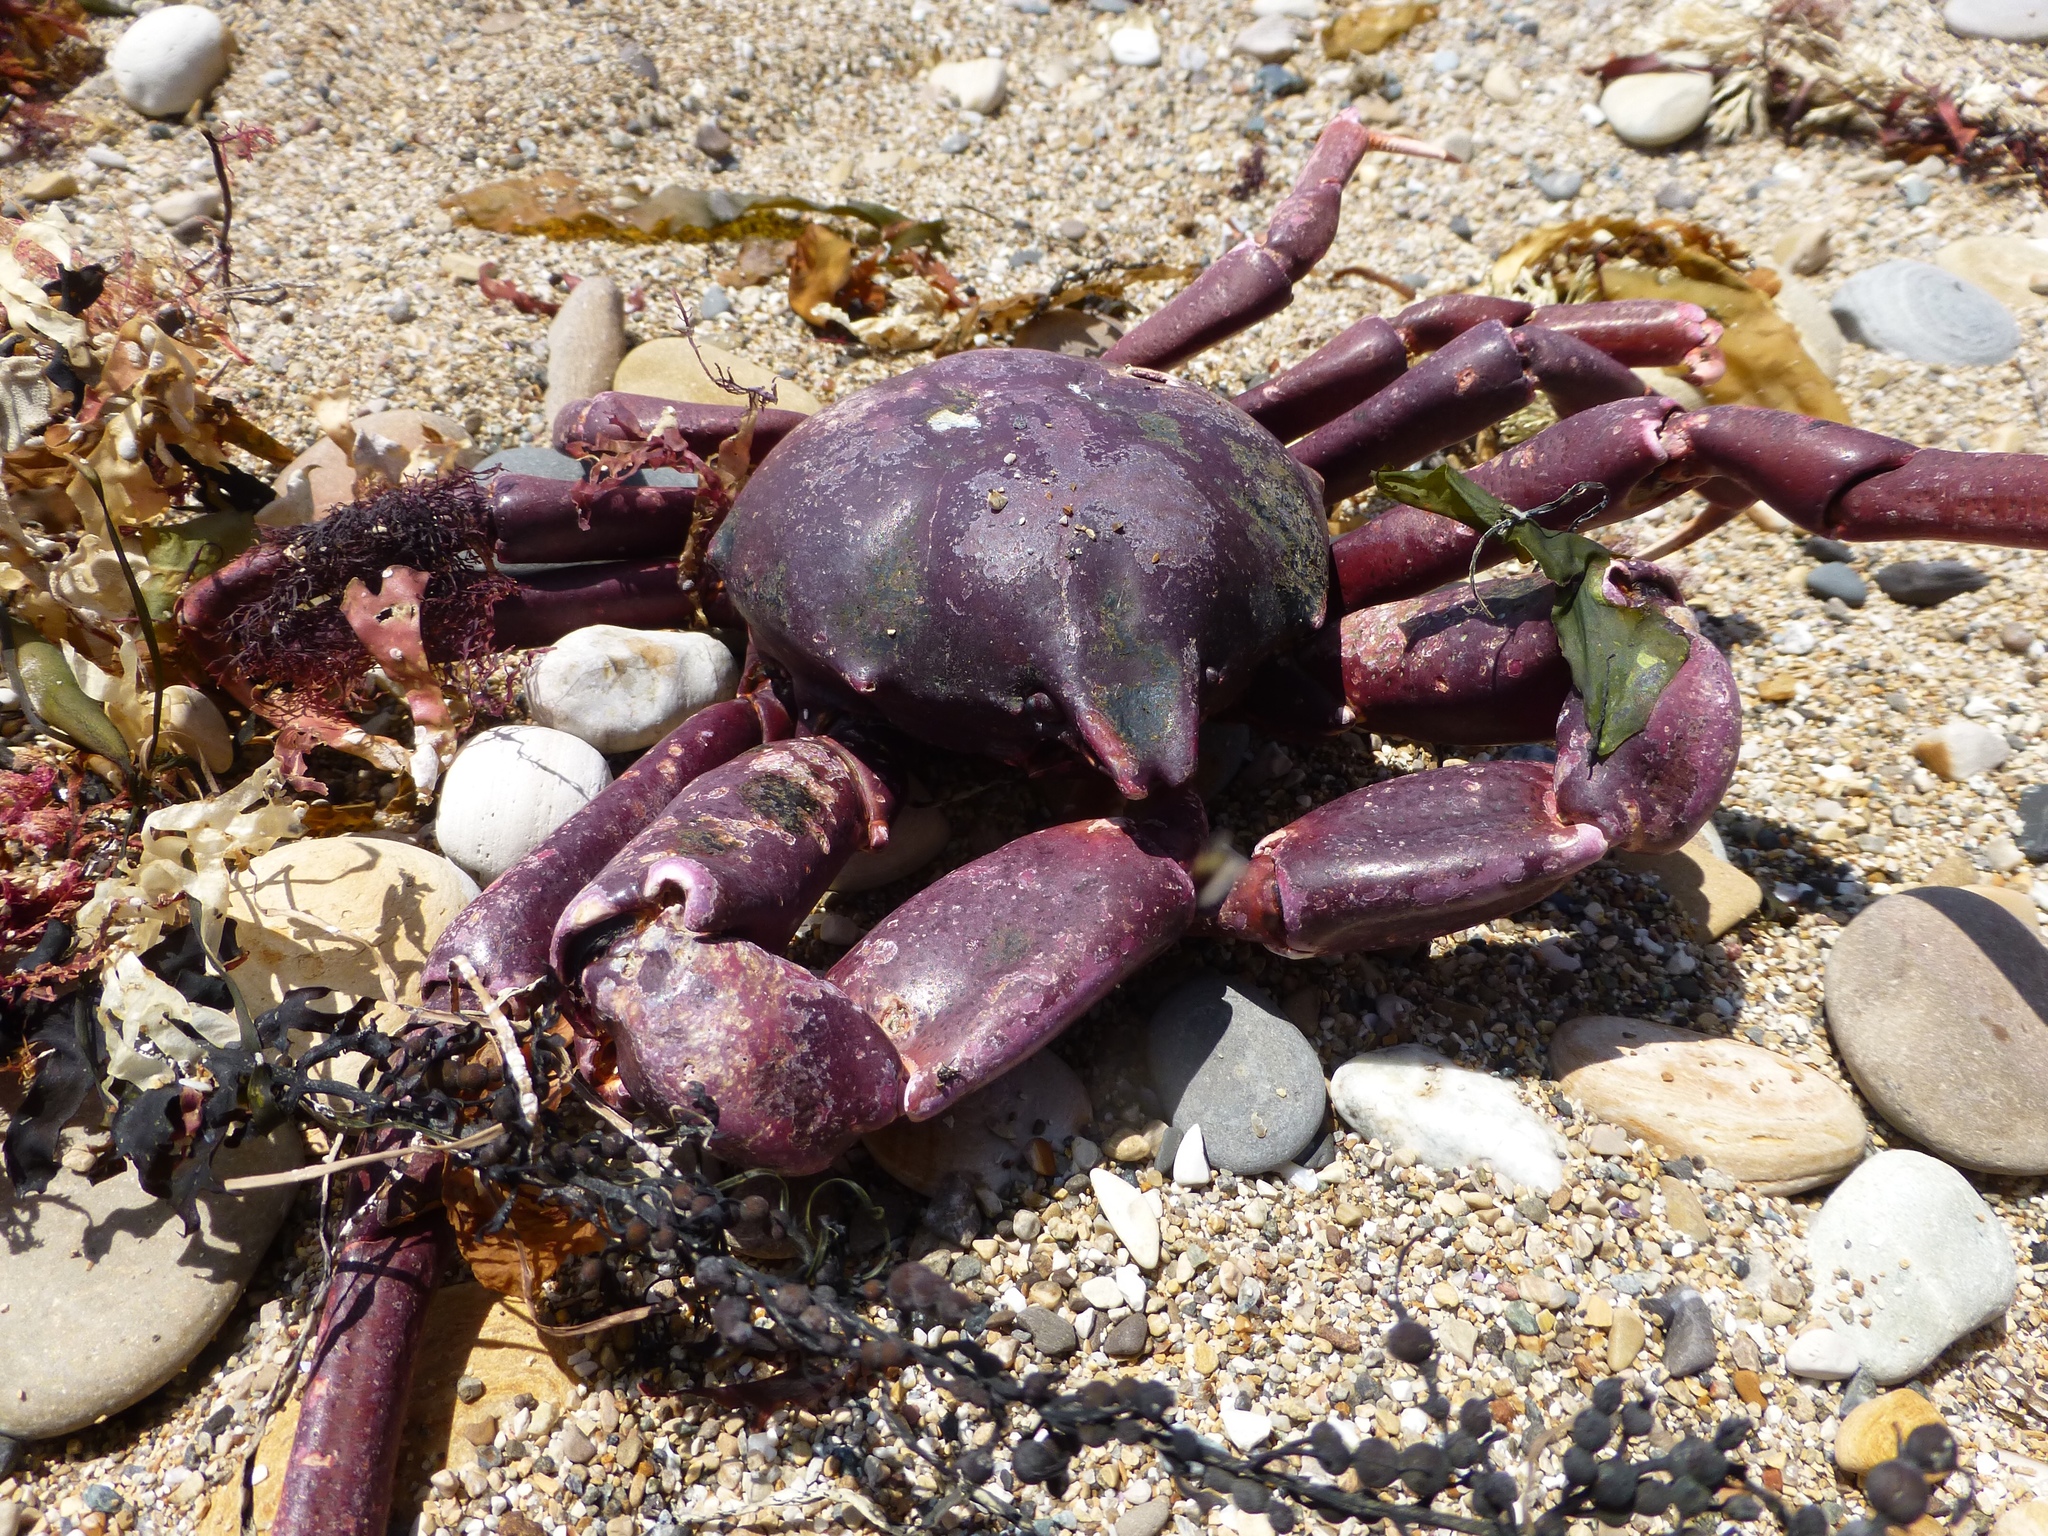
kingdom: Animalia
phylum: Arthropoda
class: Malacostraca
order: Decapoda
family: Epialtidae
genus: Taliepus
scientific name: Taliepus nuttallii
